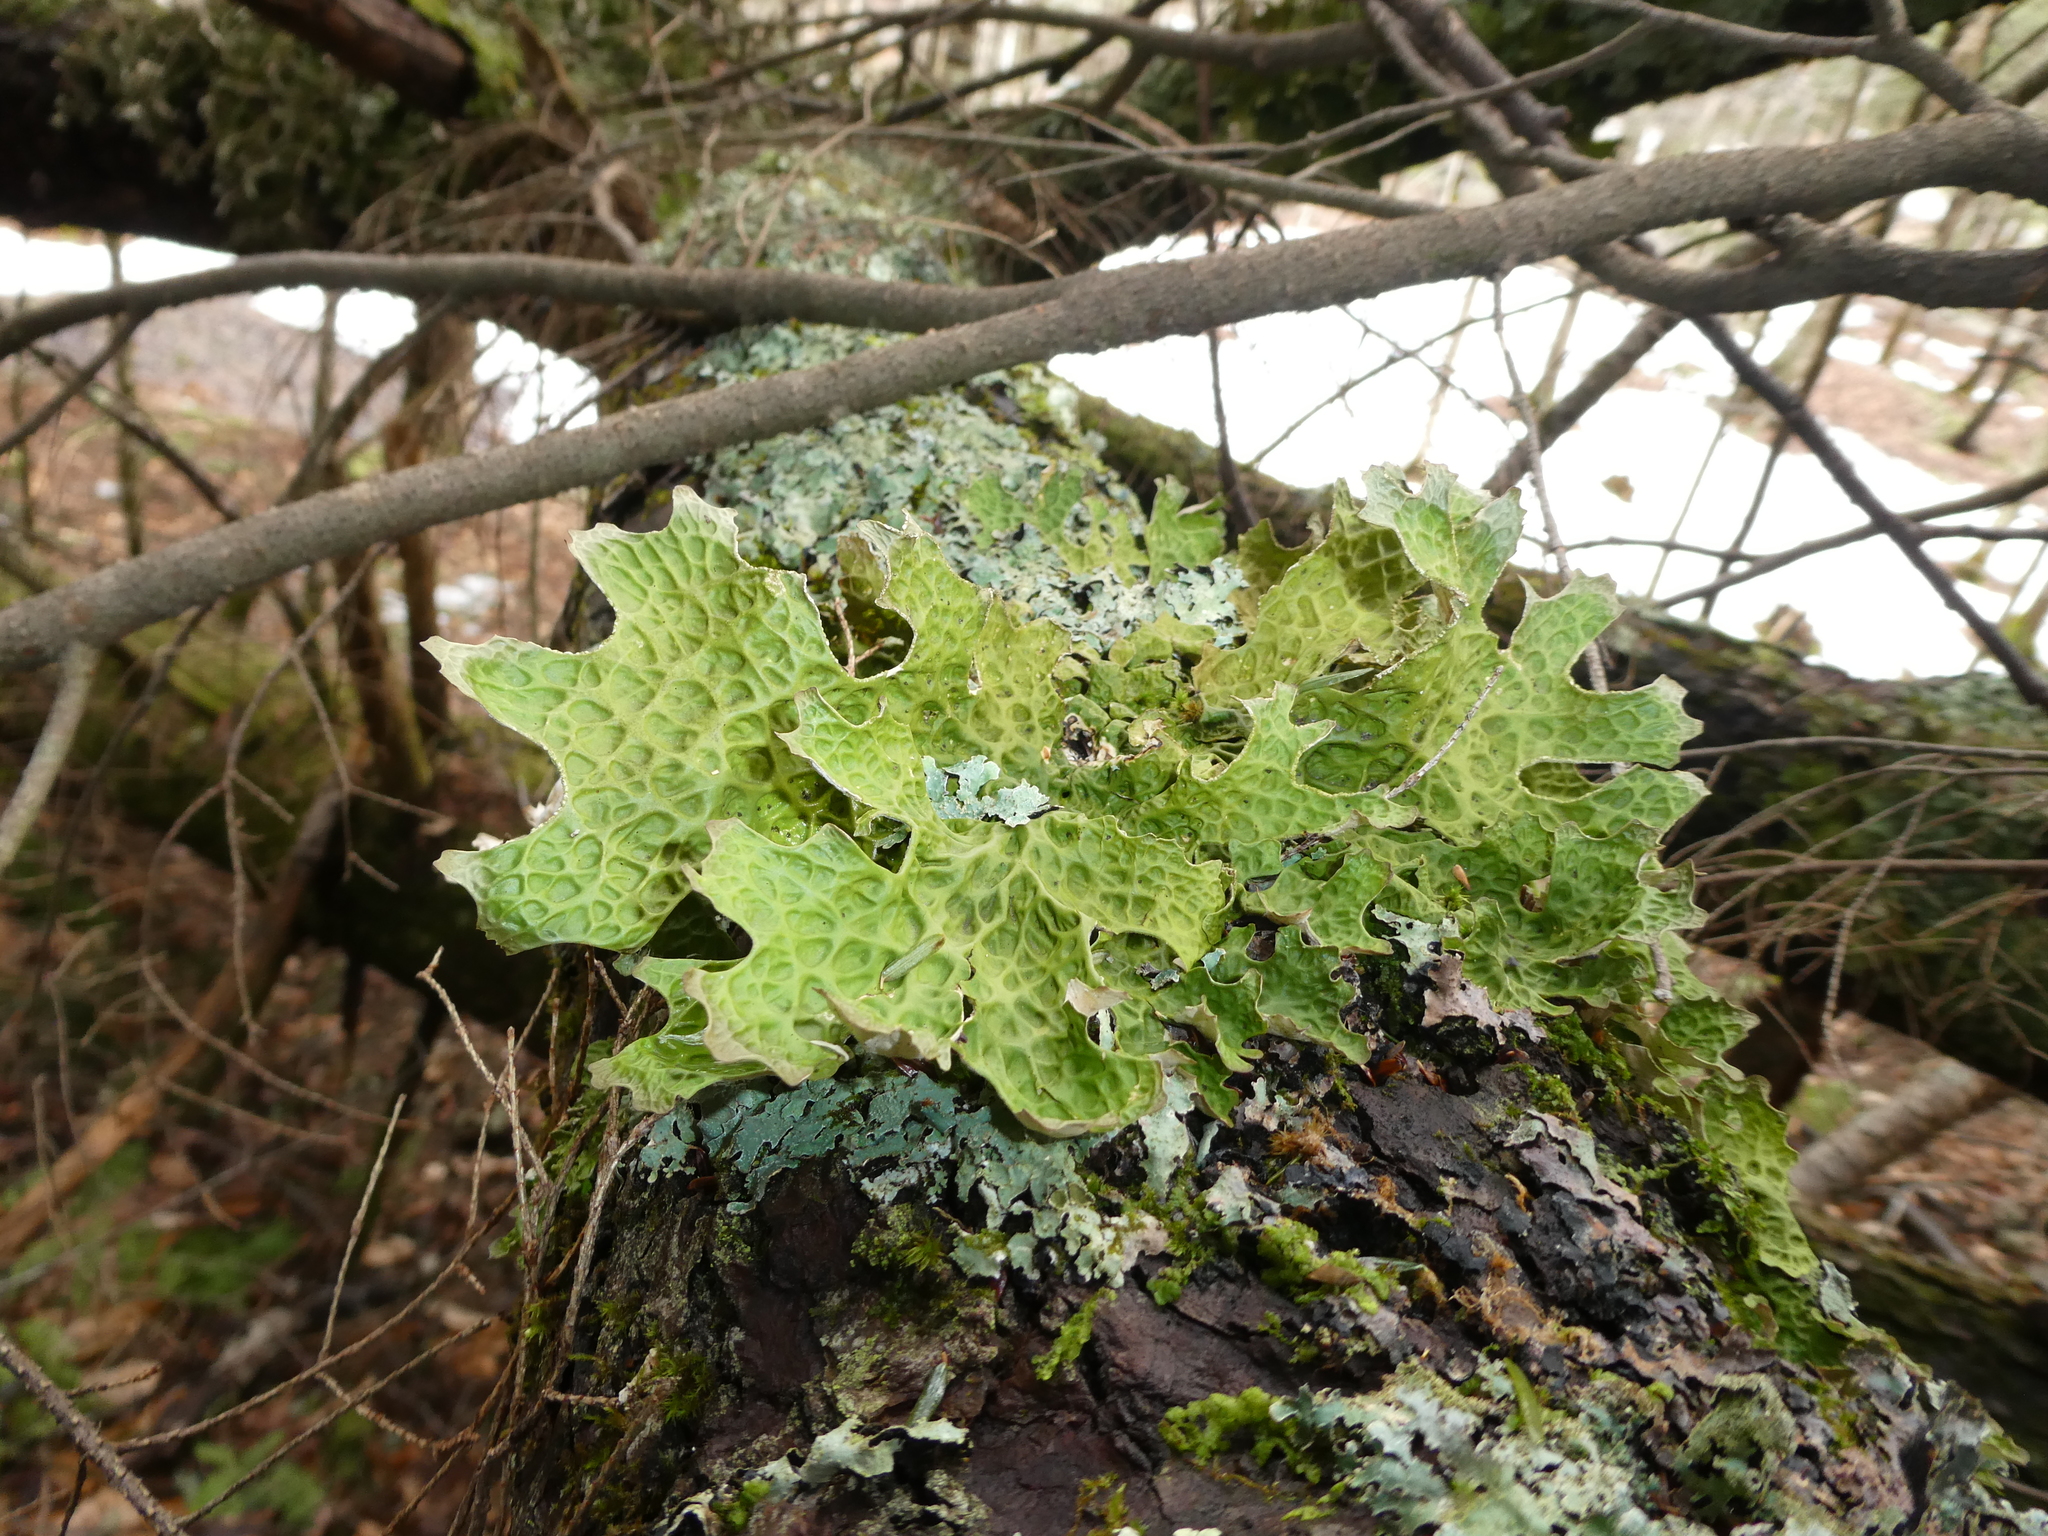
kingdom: Fungi
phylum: Ascomycota
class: Lecanoromycetes
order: Peltigerales
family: Lobariaceae
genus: Lobaria
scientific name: Lobaria pulmonaria
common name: Lungwort
